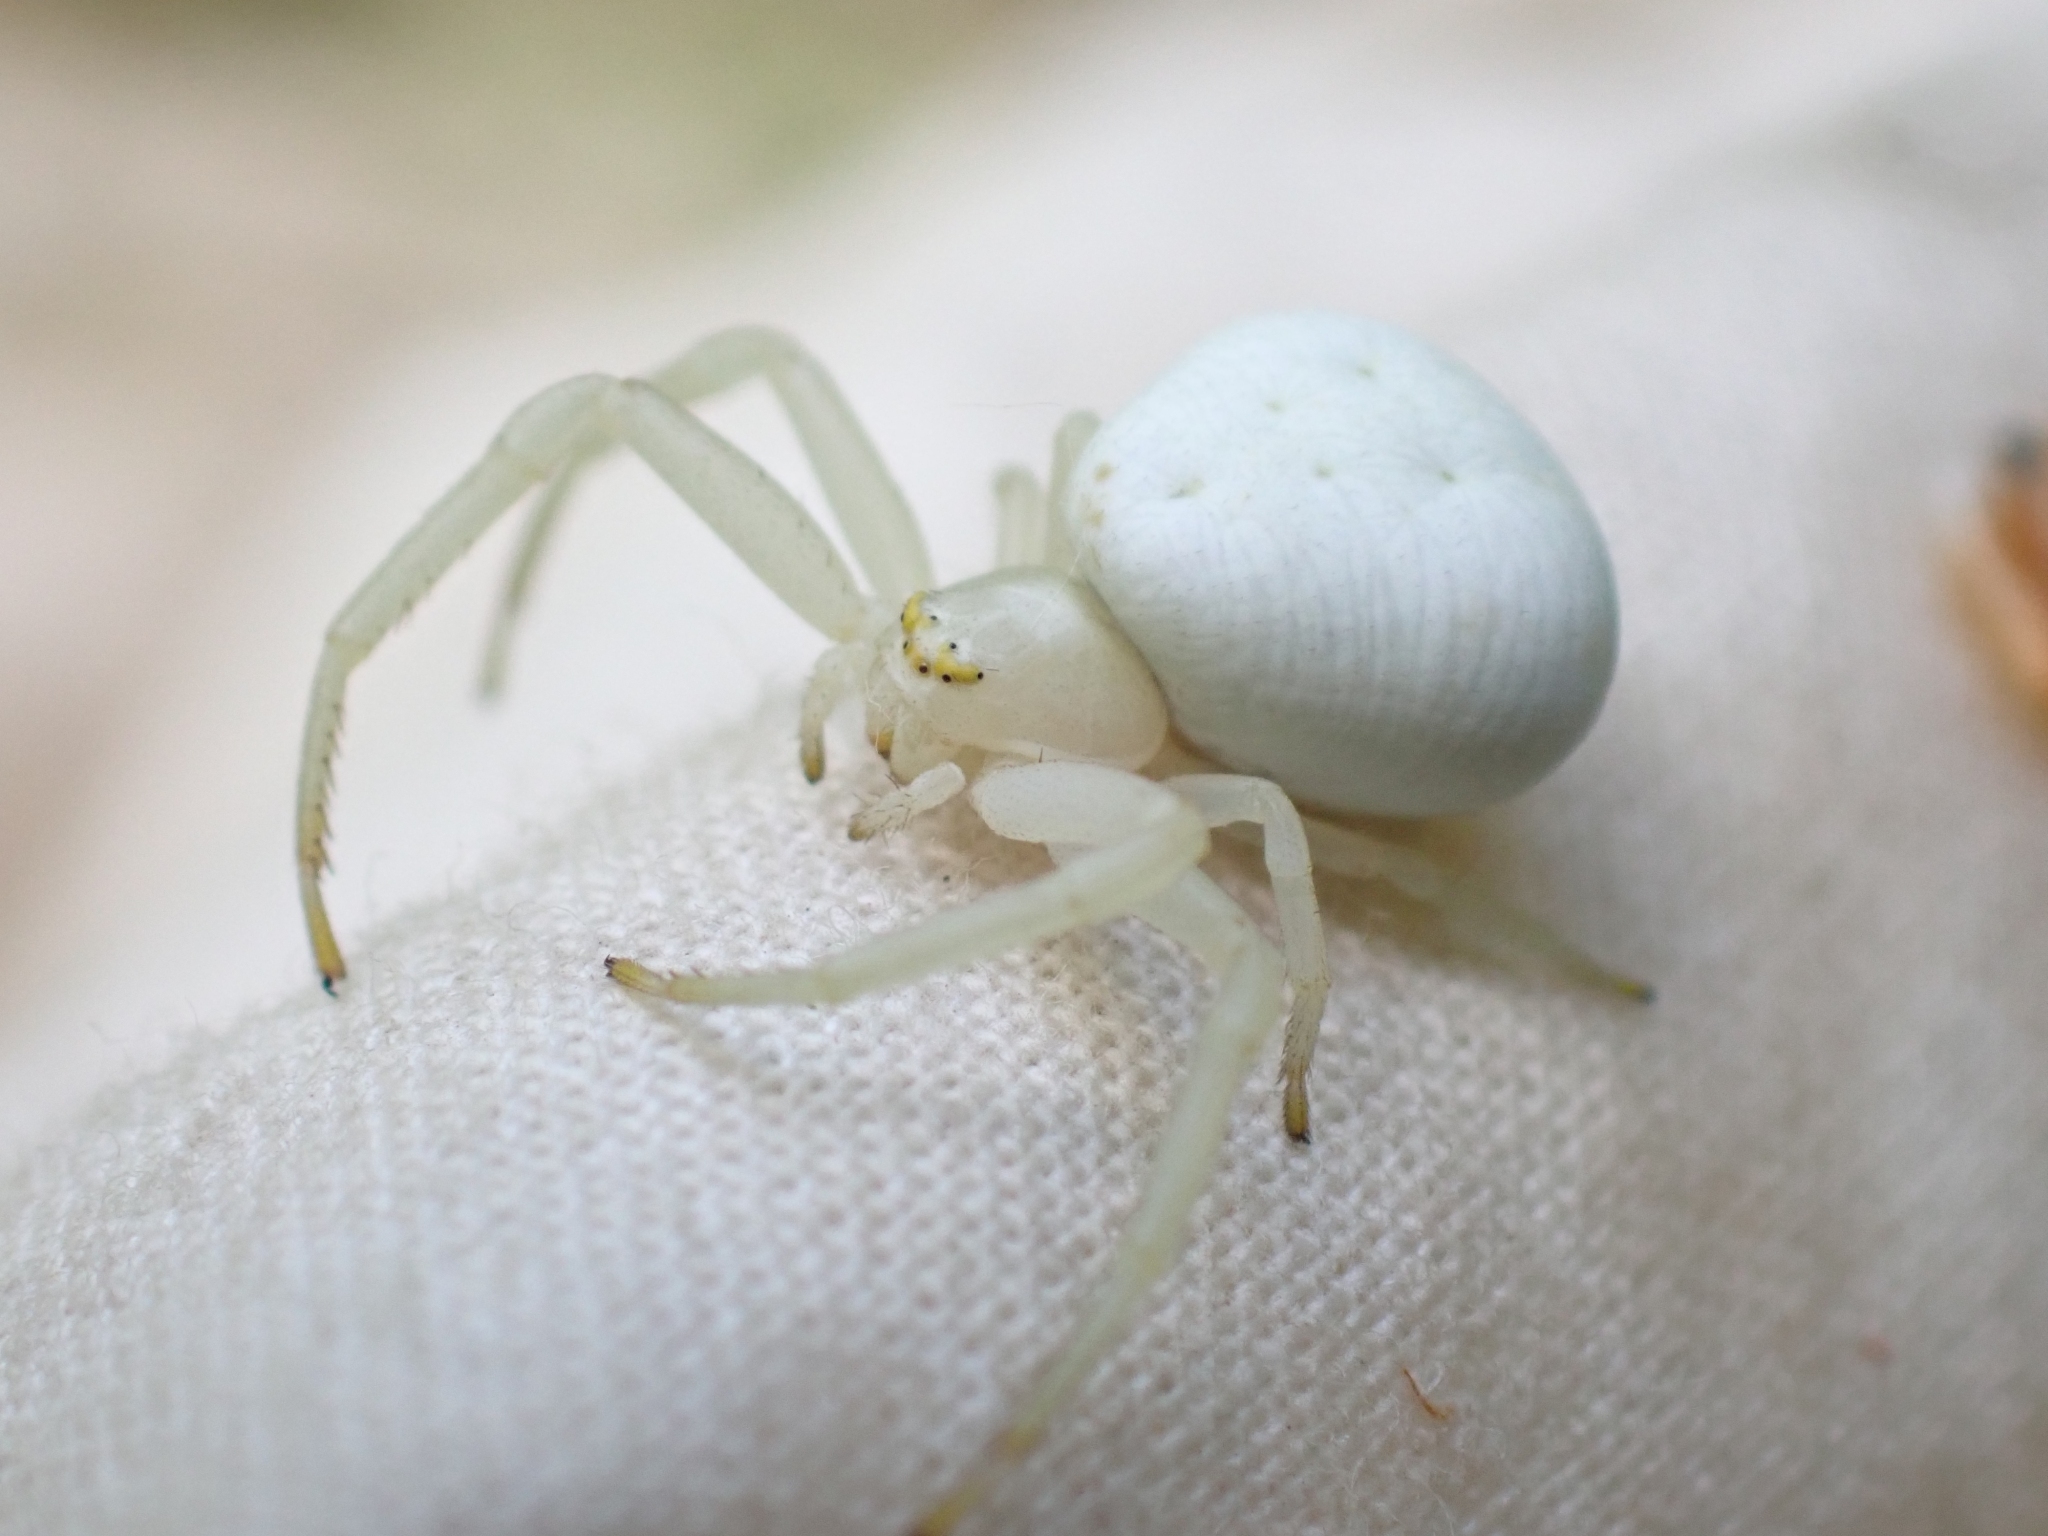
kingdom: Animalia
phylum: Arthropoda
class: Arachnida
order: Araneae
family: Thomisidae
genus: Misumena
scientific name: Misumena vatia
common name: Goldenrod crab spider
